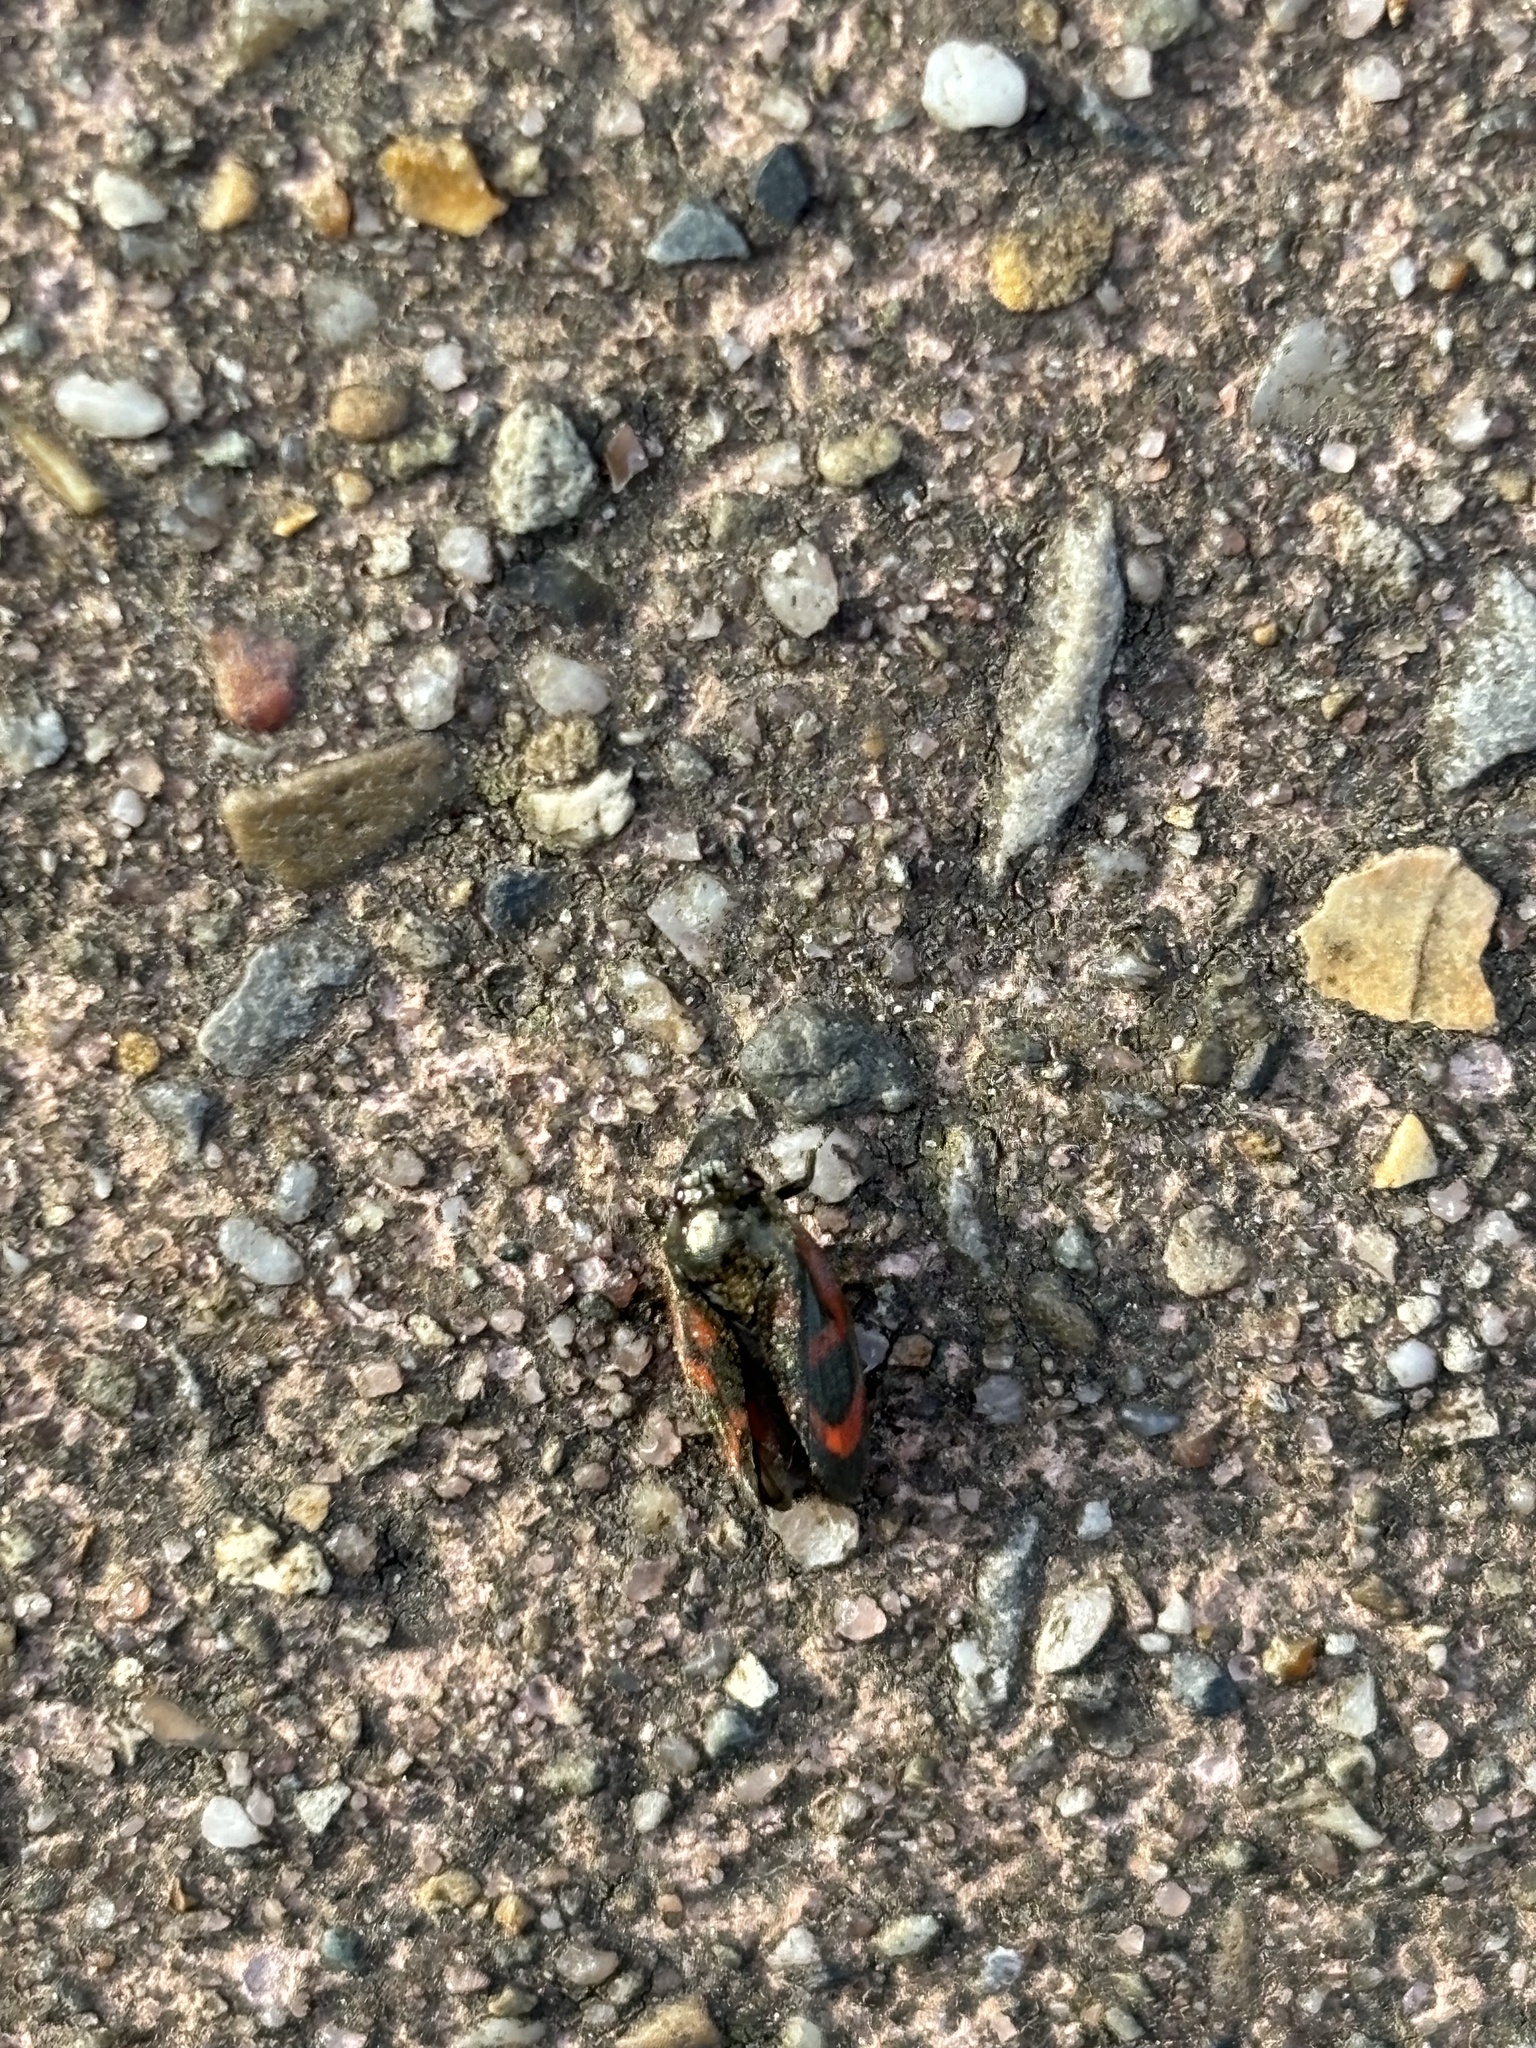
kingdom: Animalia
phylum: Arthropoda
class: Insecta
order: Hemiptera
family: Cercopidae
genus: Haematoloma
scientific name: Haematoloma dorsata
